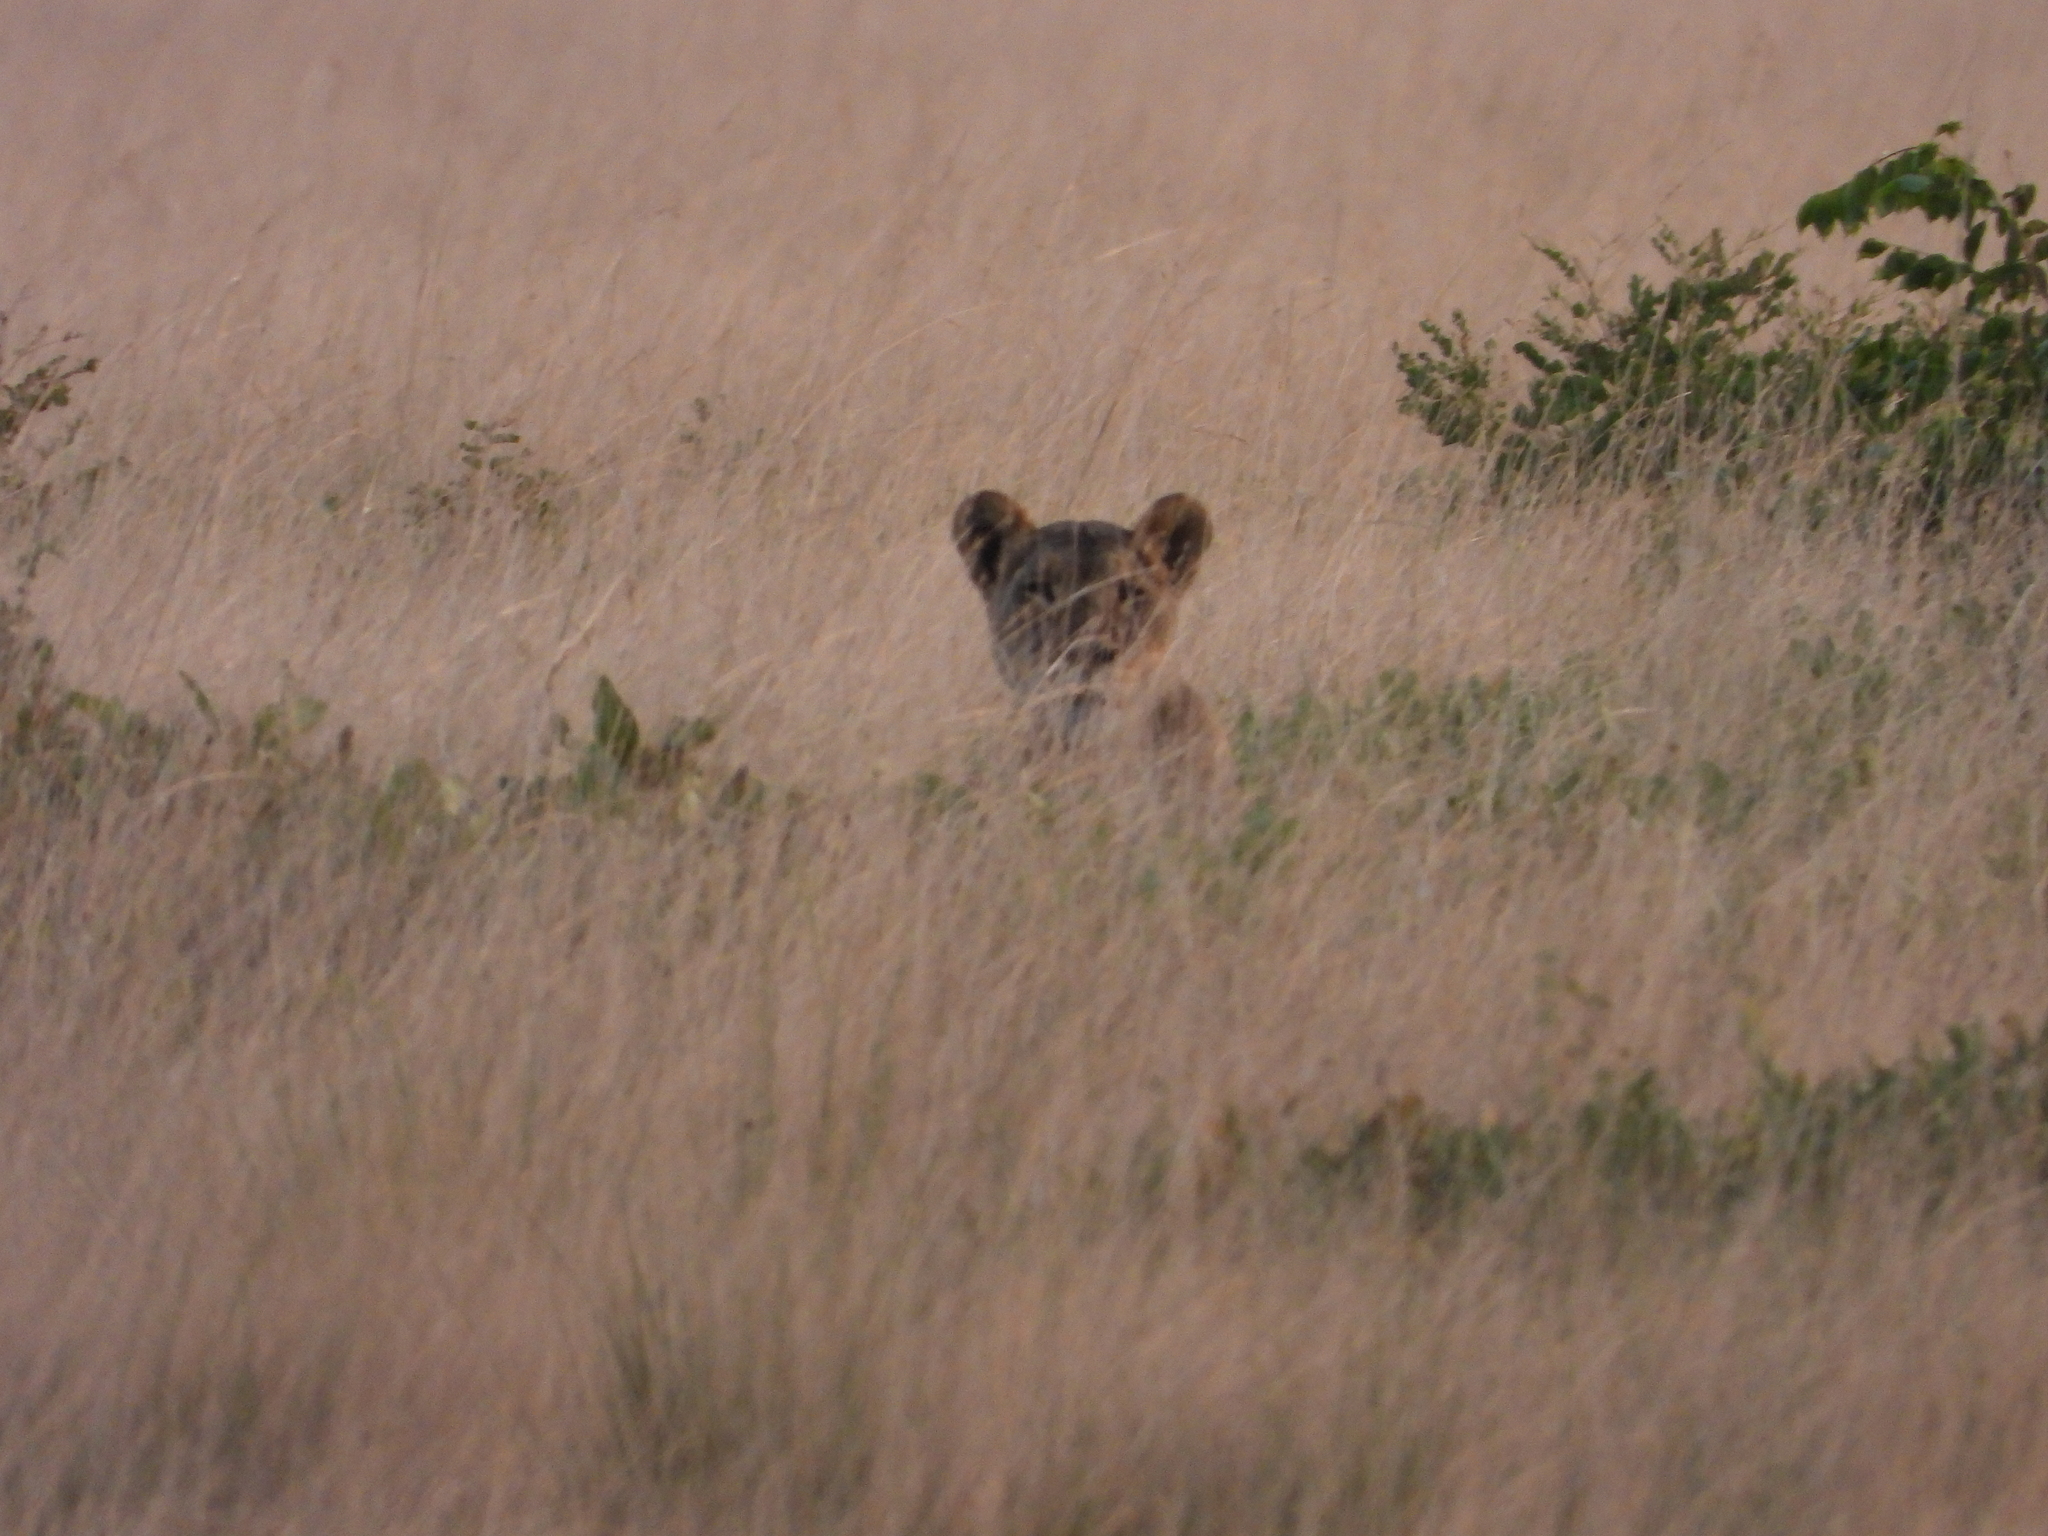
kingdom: Animalia
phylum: Chordata
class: Mammalia
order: Carnivora
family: Felidae
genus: Panthera
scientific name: Panthera leo
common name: Lion
